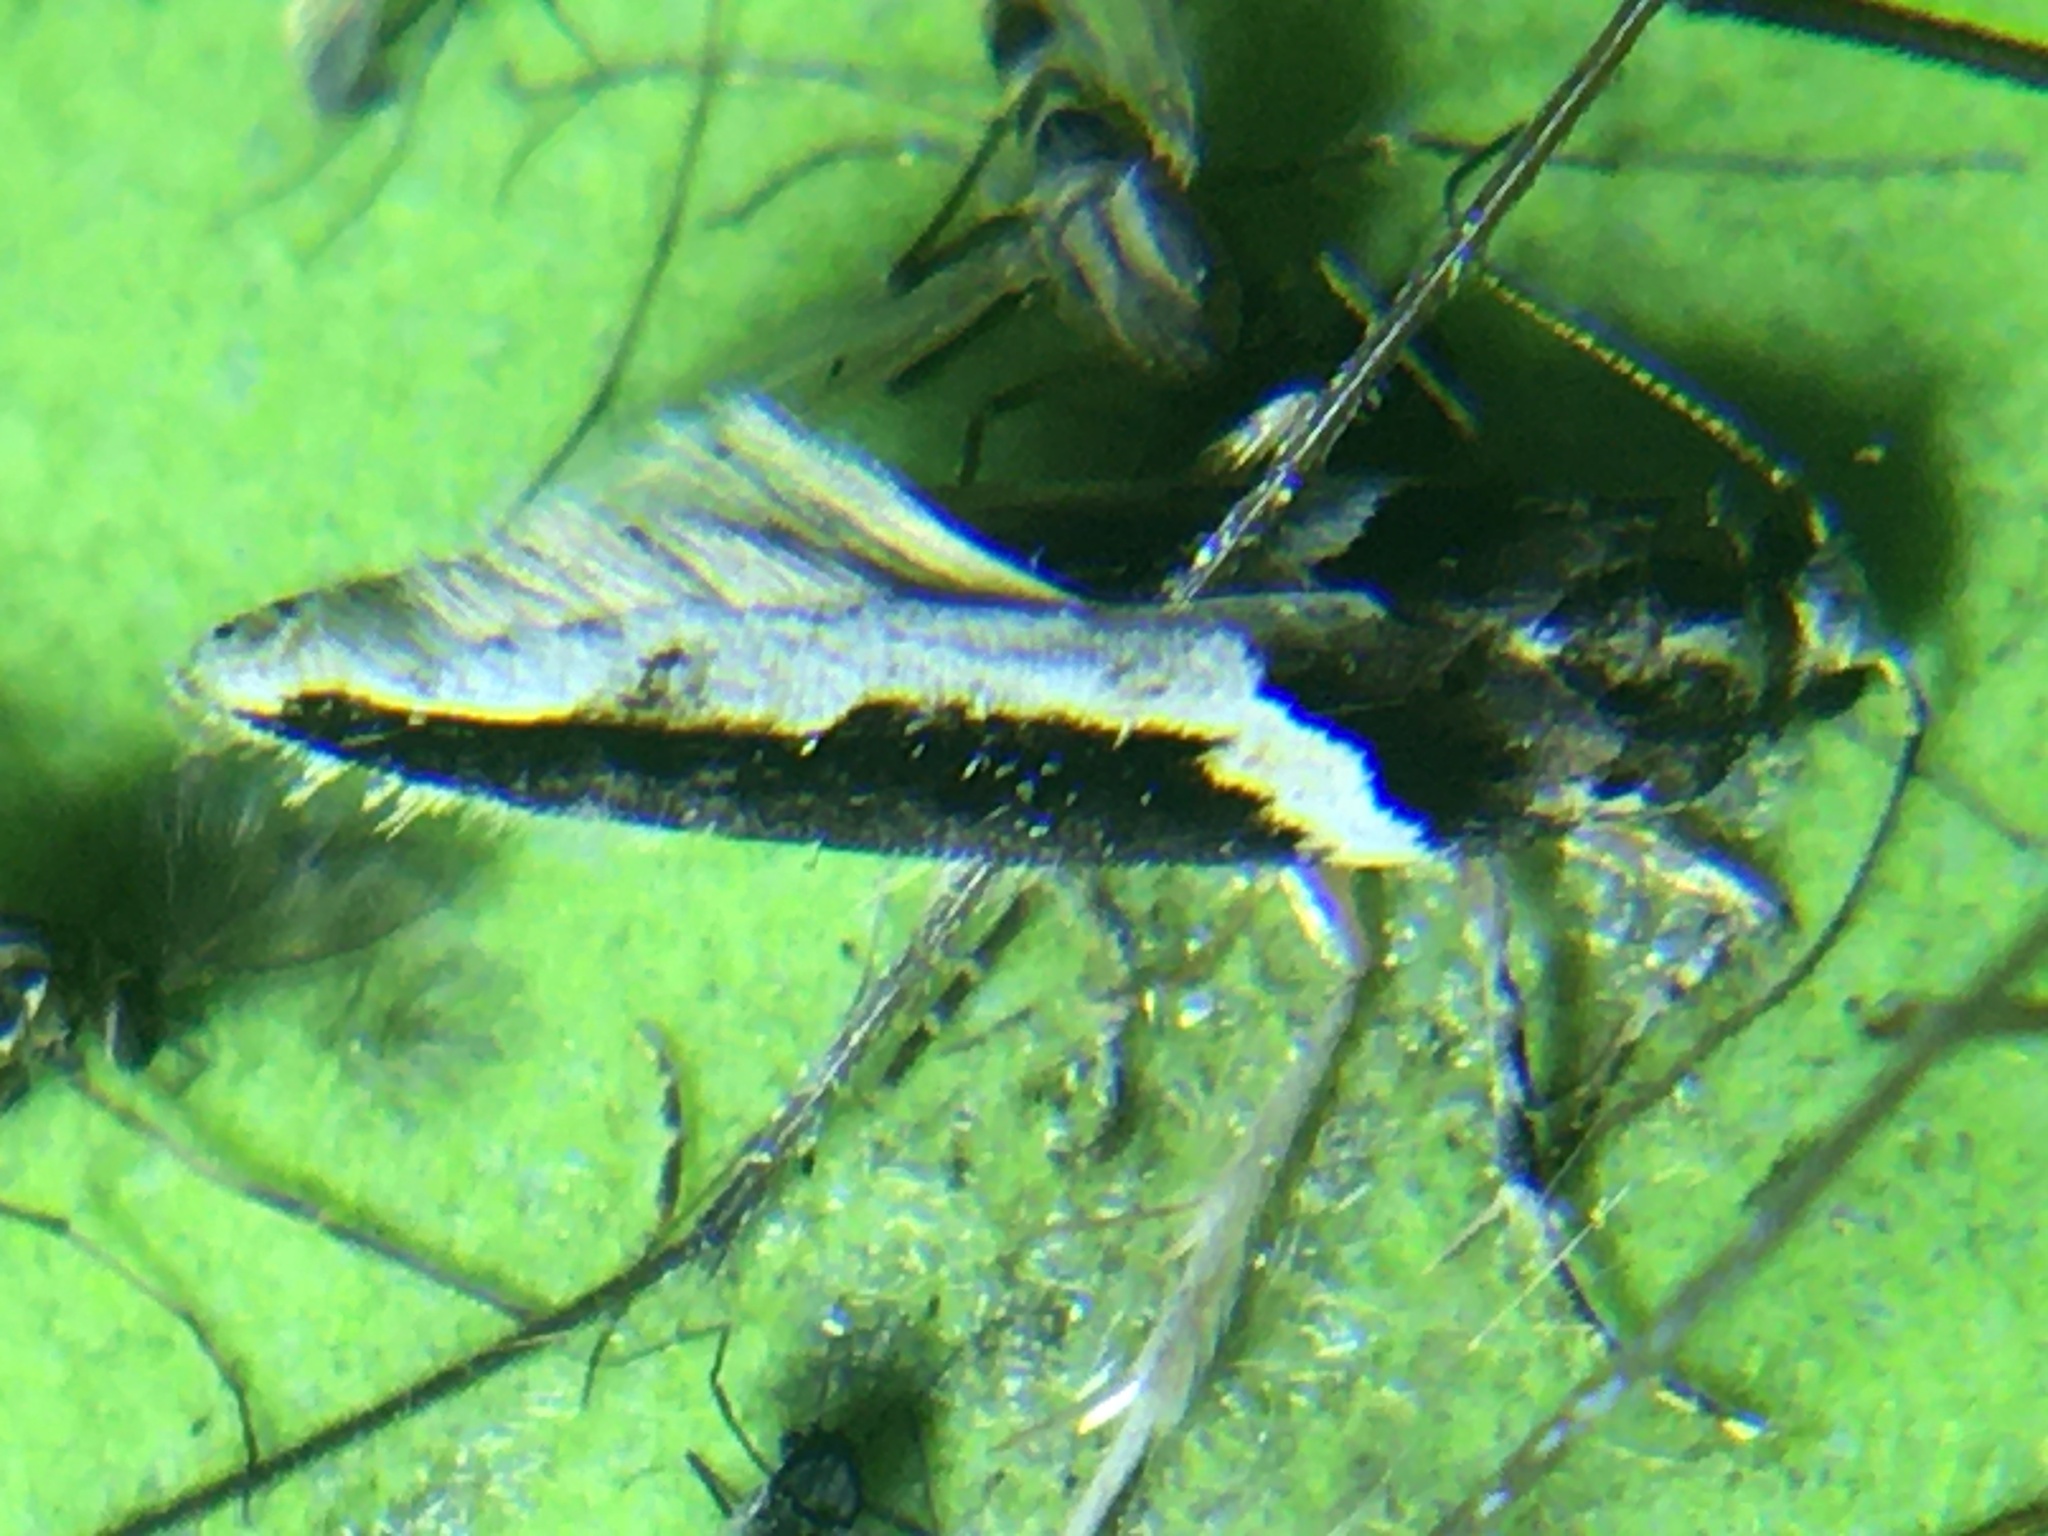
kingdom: Animalia
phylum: Arthropoda
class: Insecta
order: Lepidoptera
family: Gelechiidae
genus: Telphusa
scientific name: Telphusa longifasciella
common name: Y-backed telphusa
